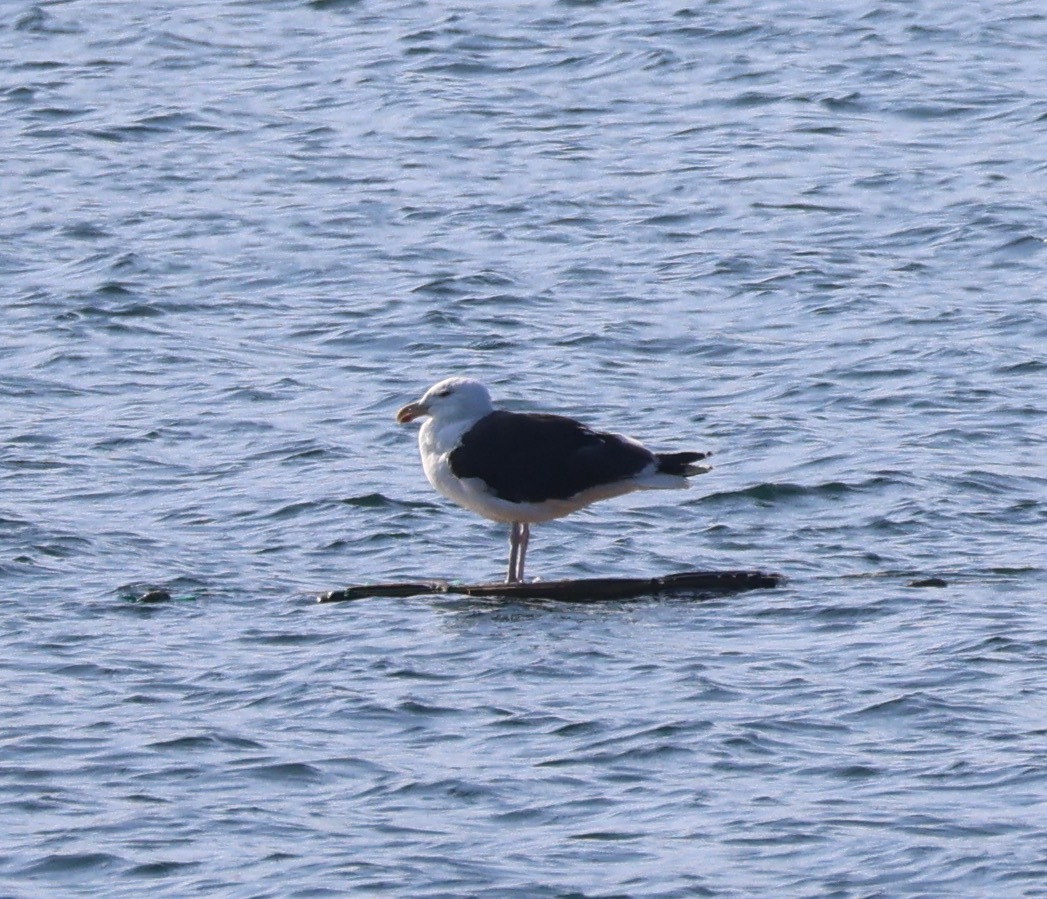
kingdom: Animalia
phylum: Chordata
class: Aves
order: Charadriiformes
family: Laridae
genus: Larus
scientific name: Larus marinus
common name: Great black-backed gull
